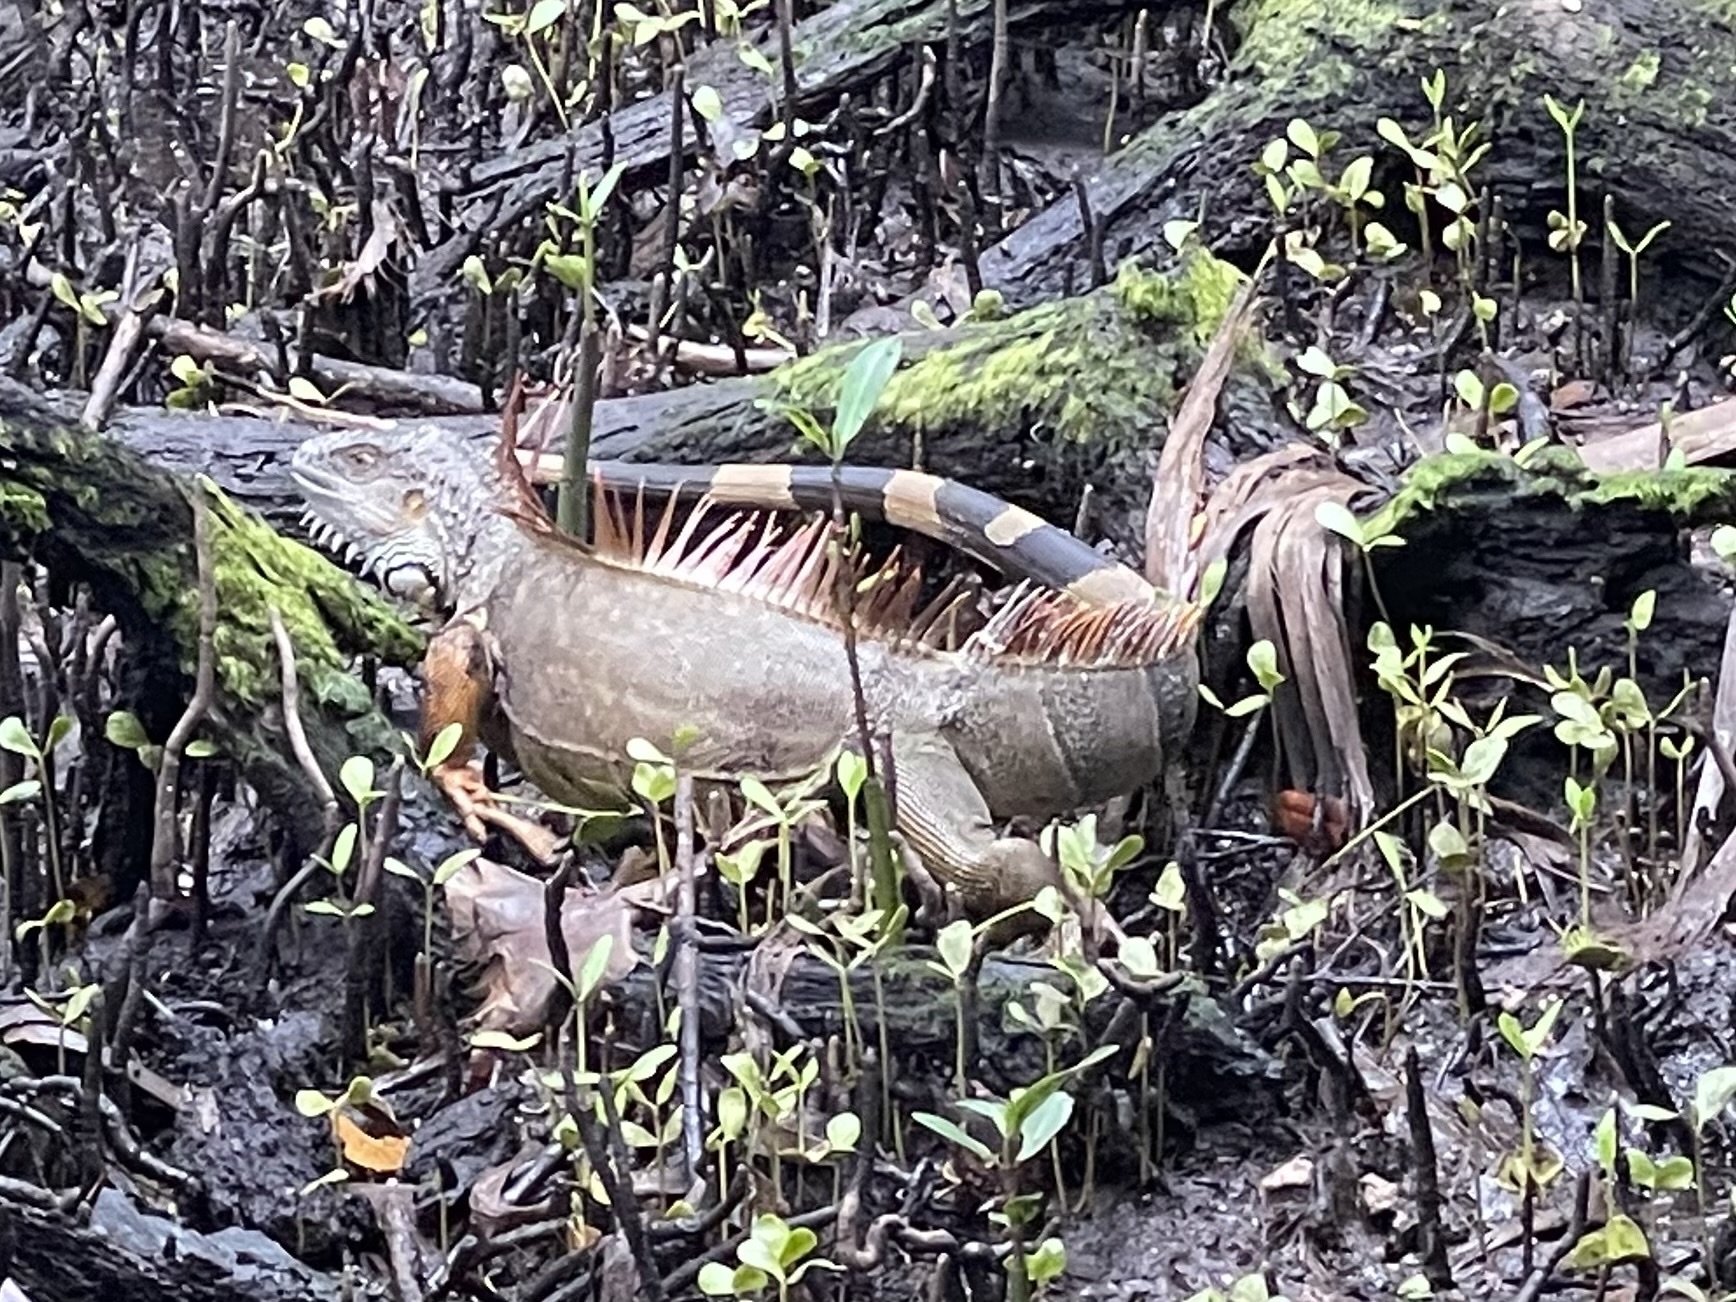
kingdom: Animalia
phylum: Chordata
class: Squamata
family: Iguanidae
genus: Iguana
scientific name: Iguana iguana
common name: Green iguana
